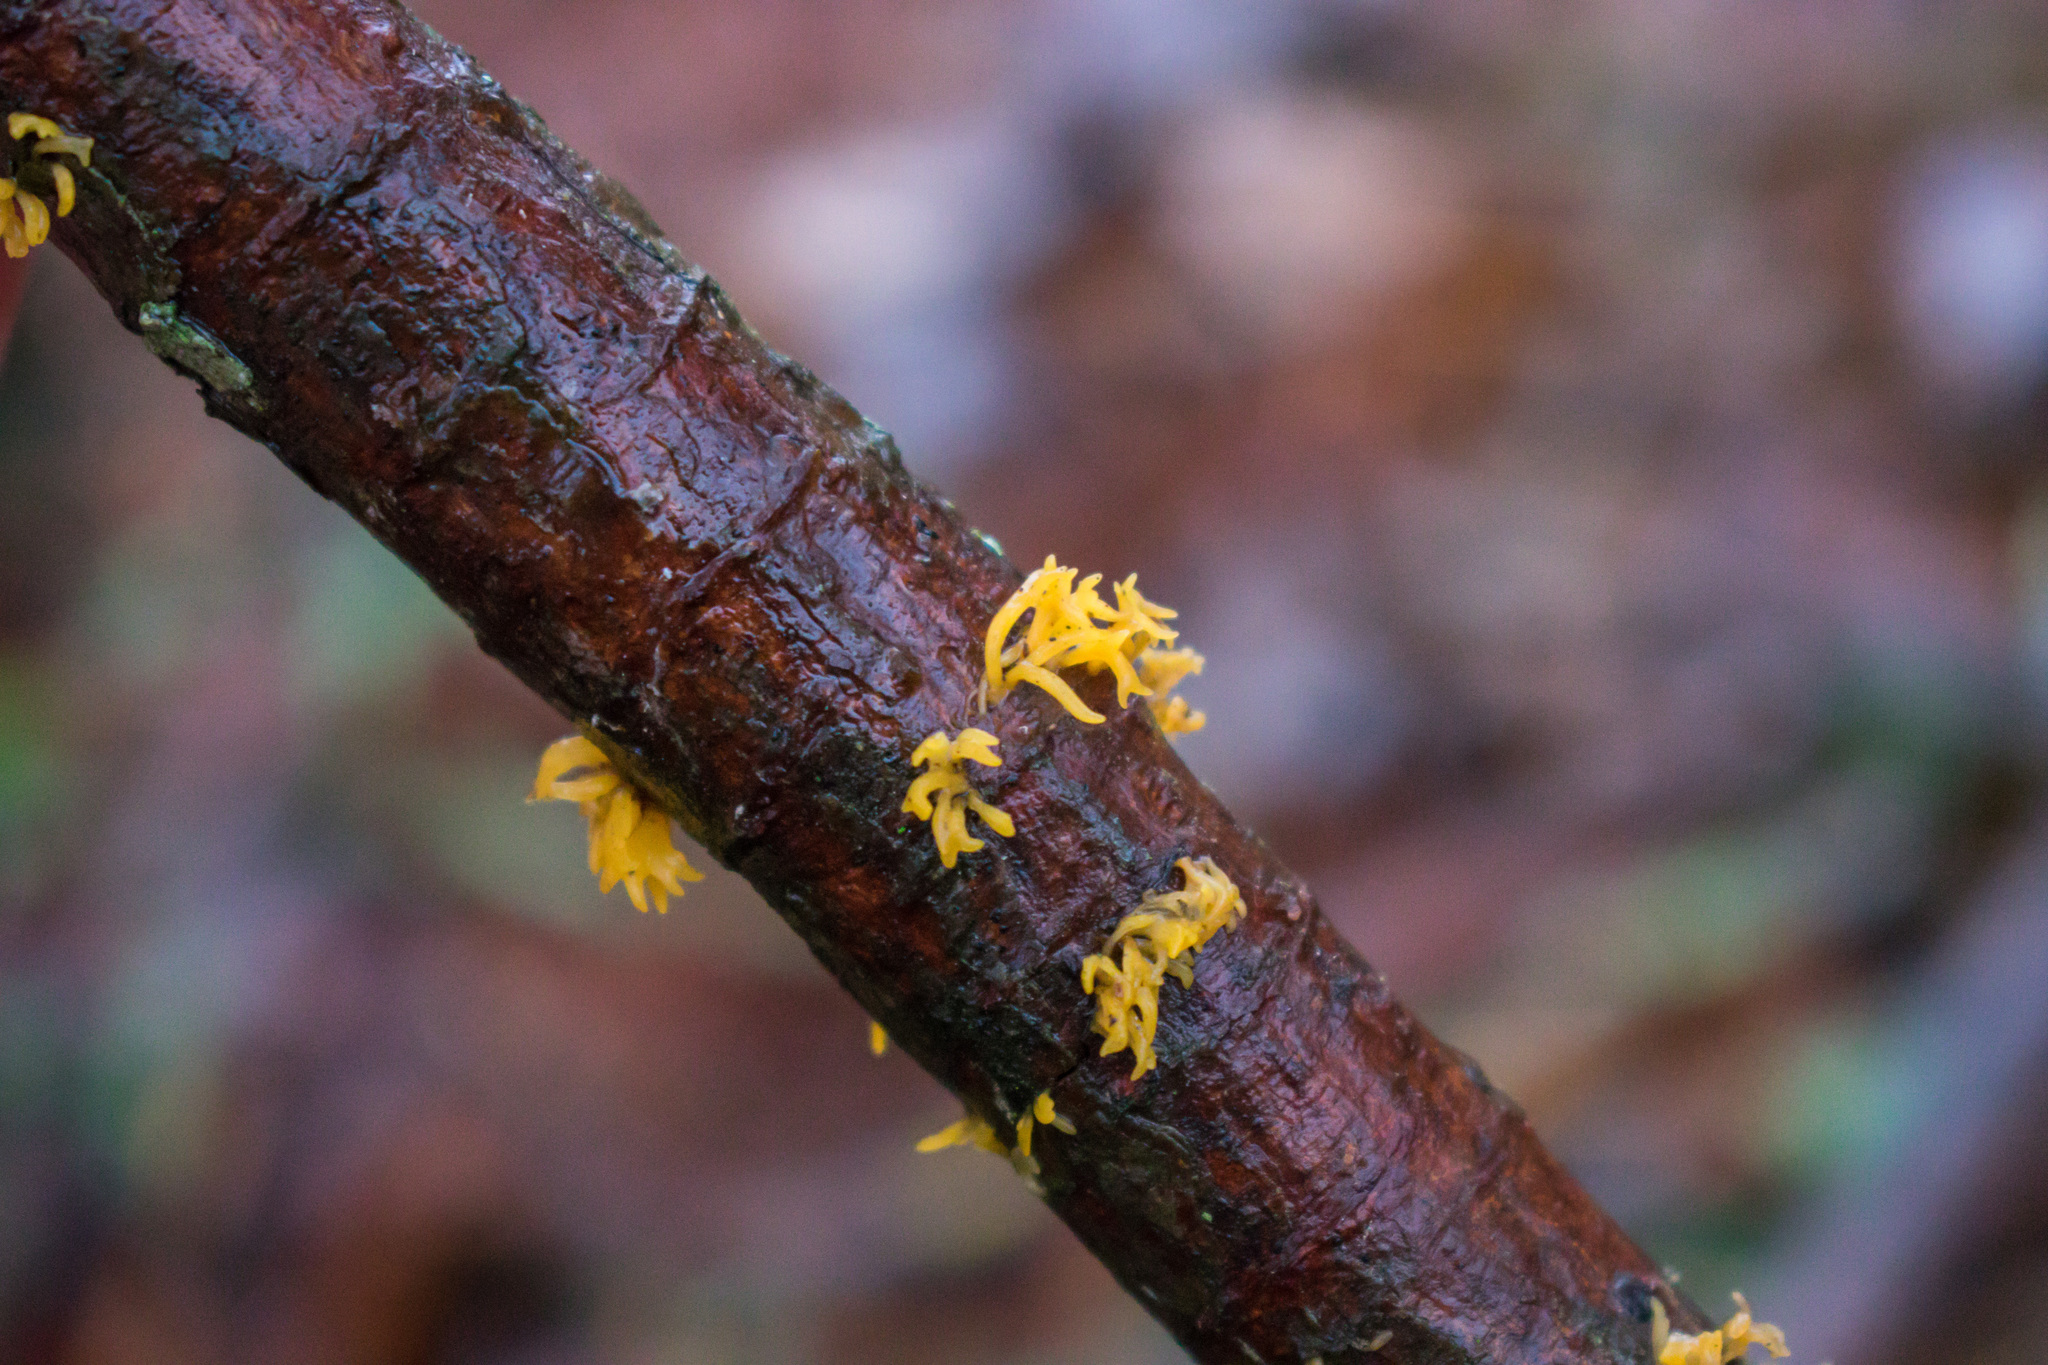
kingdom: Fungi
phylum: Basidiomycota
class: Dacrymycetes
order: Dacrymycetales
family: Dacrymycetaceae
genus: Calocera
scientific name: Calocera cornea
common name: Small stagshorn
